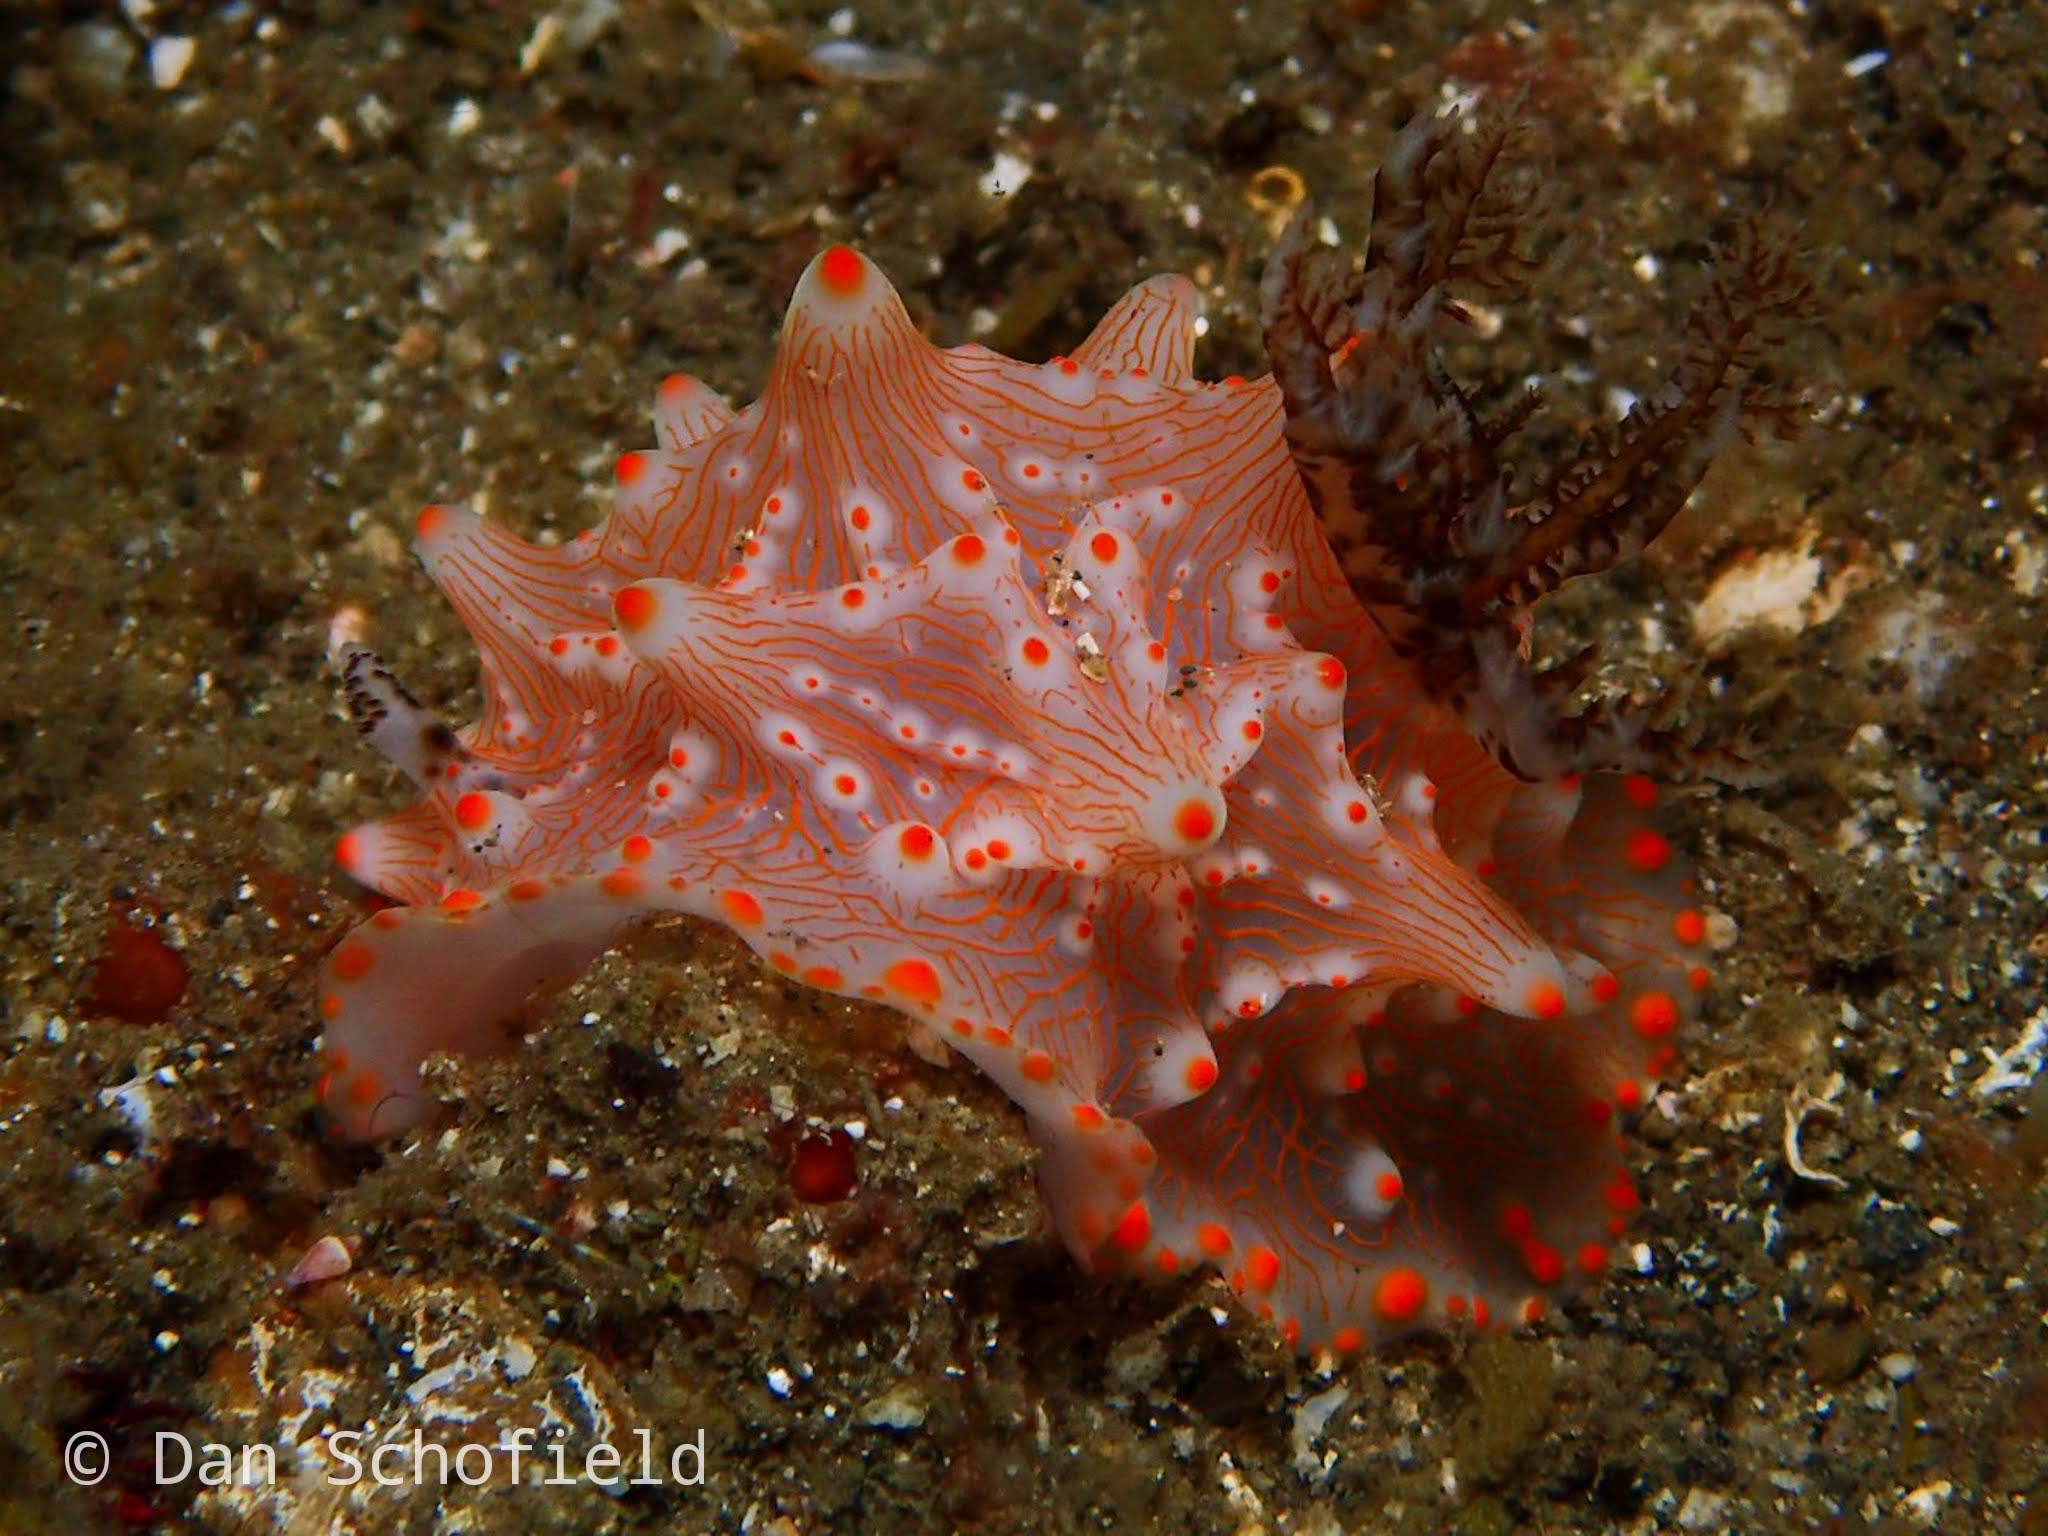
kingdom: Animalia
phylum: Mollusca
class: Gastropoda
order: Nudibranchia
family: Discodorididae
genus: Halgerda
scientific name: Halgerda batangas
